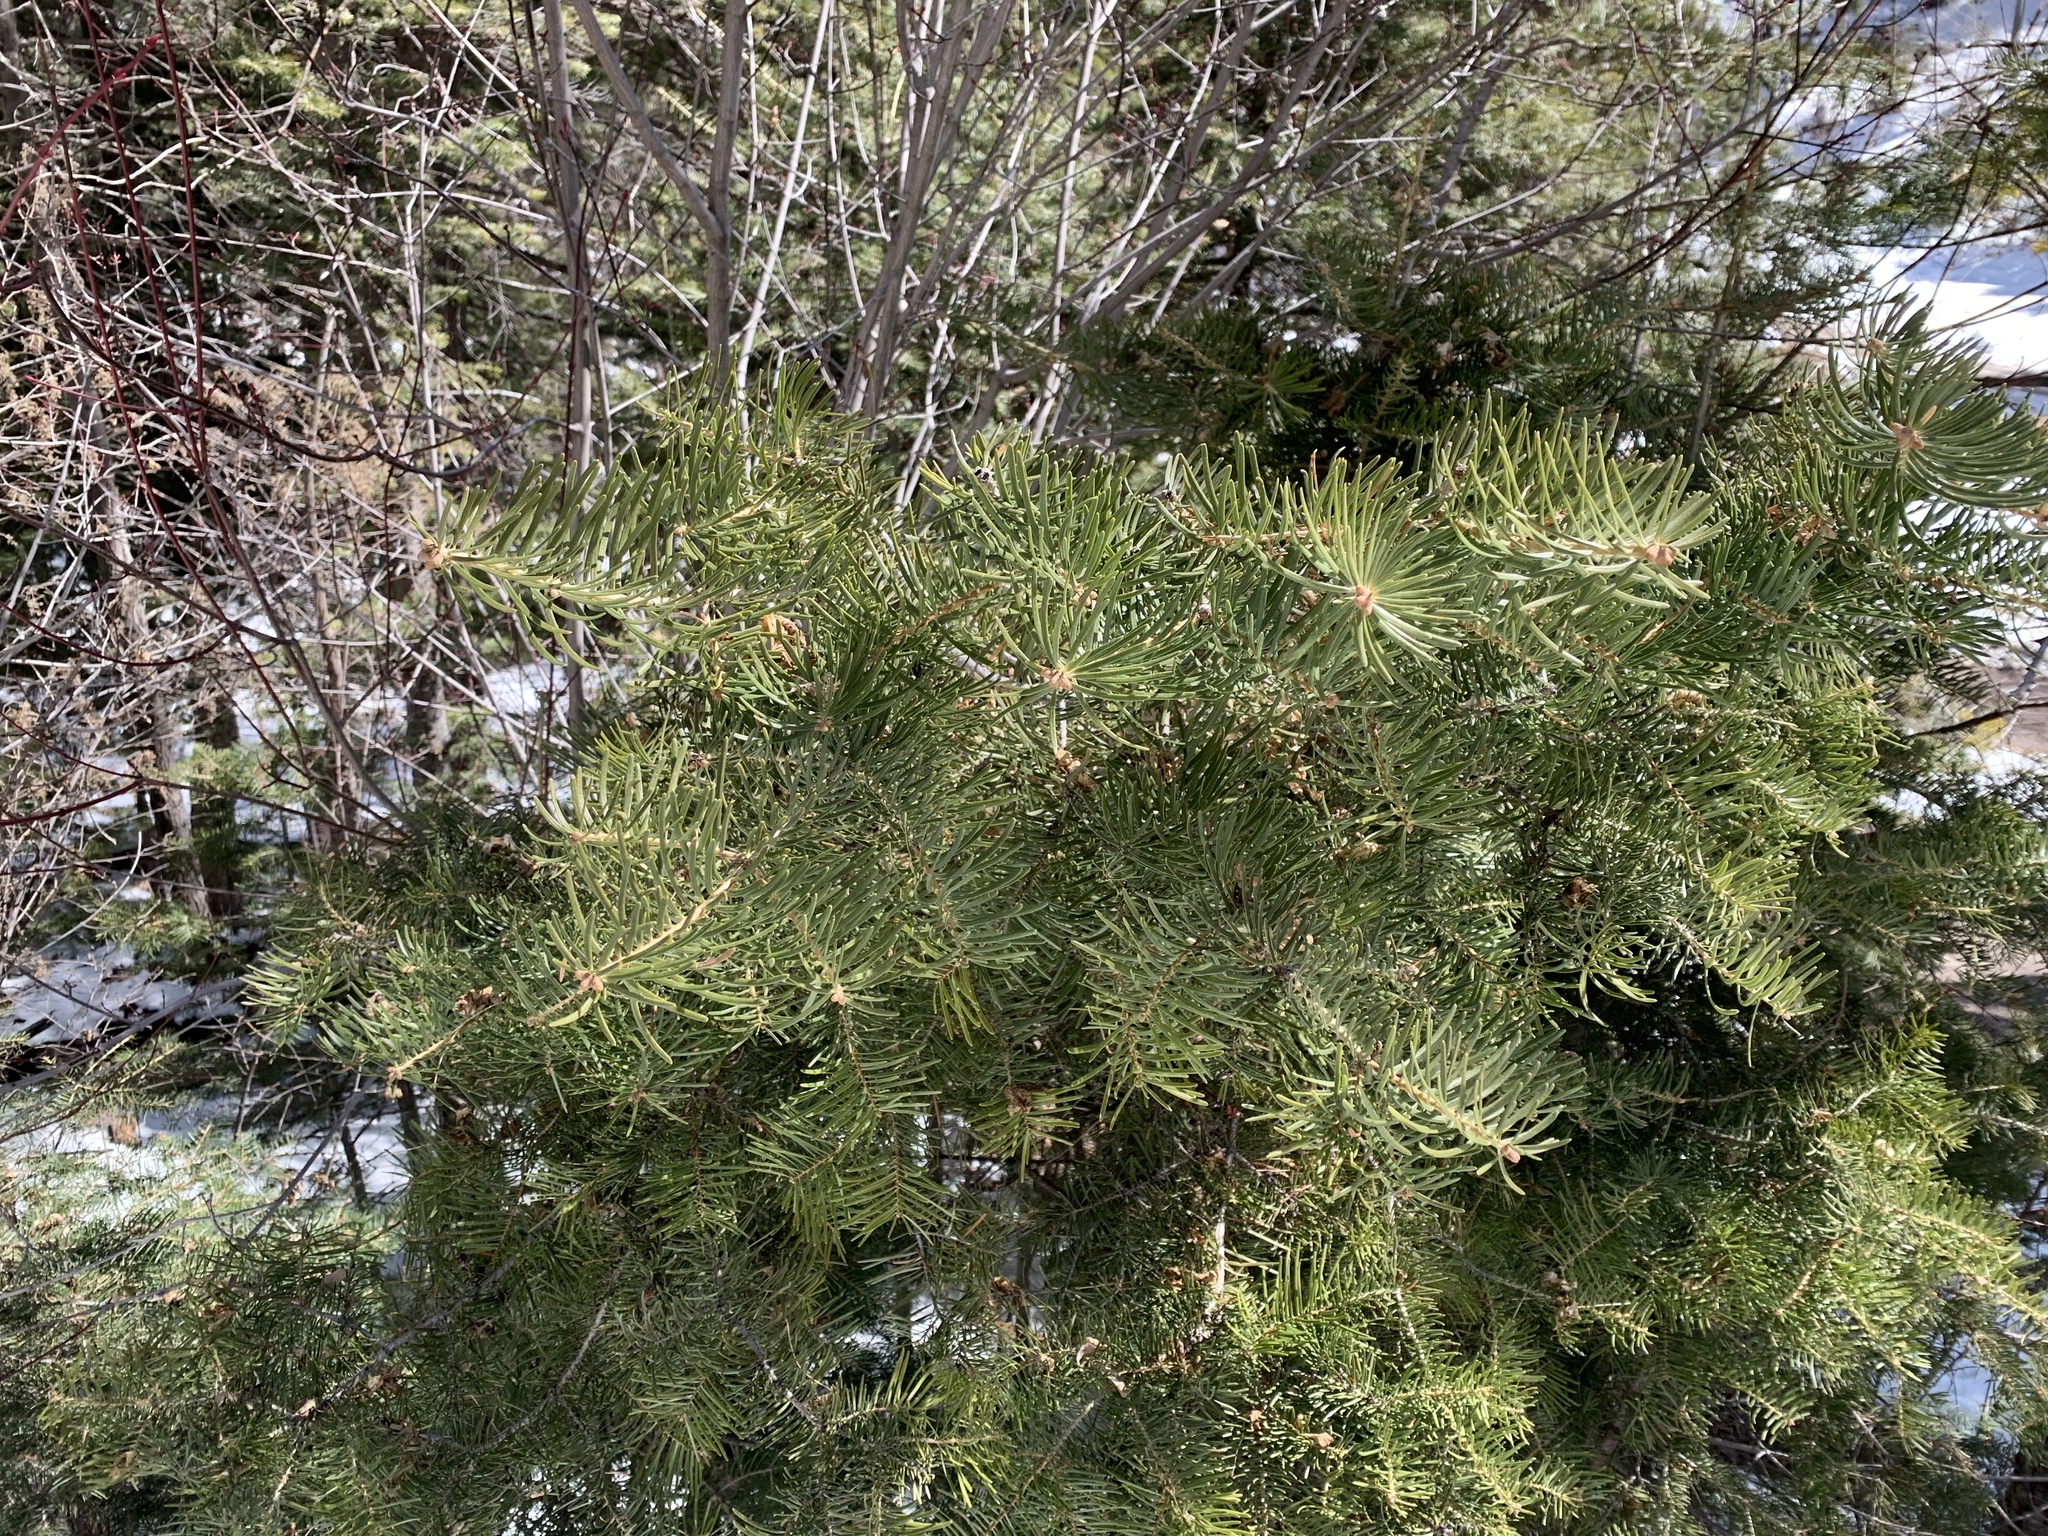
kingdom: Plantae
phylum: Tracheophyta
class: Pinopsida
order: Pinales
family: Pinaceae
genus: Abies
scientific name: Abies concolor
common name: Colorado fir
